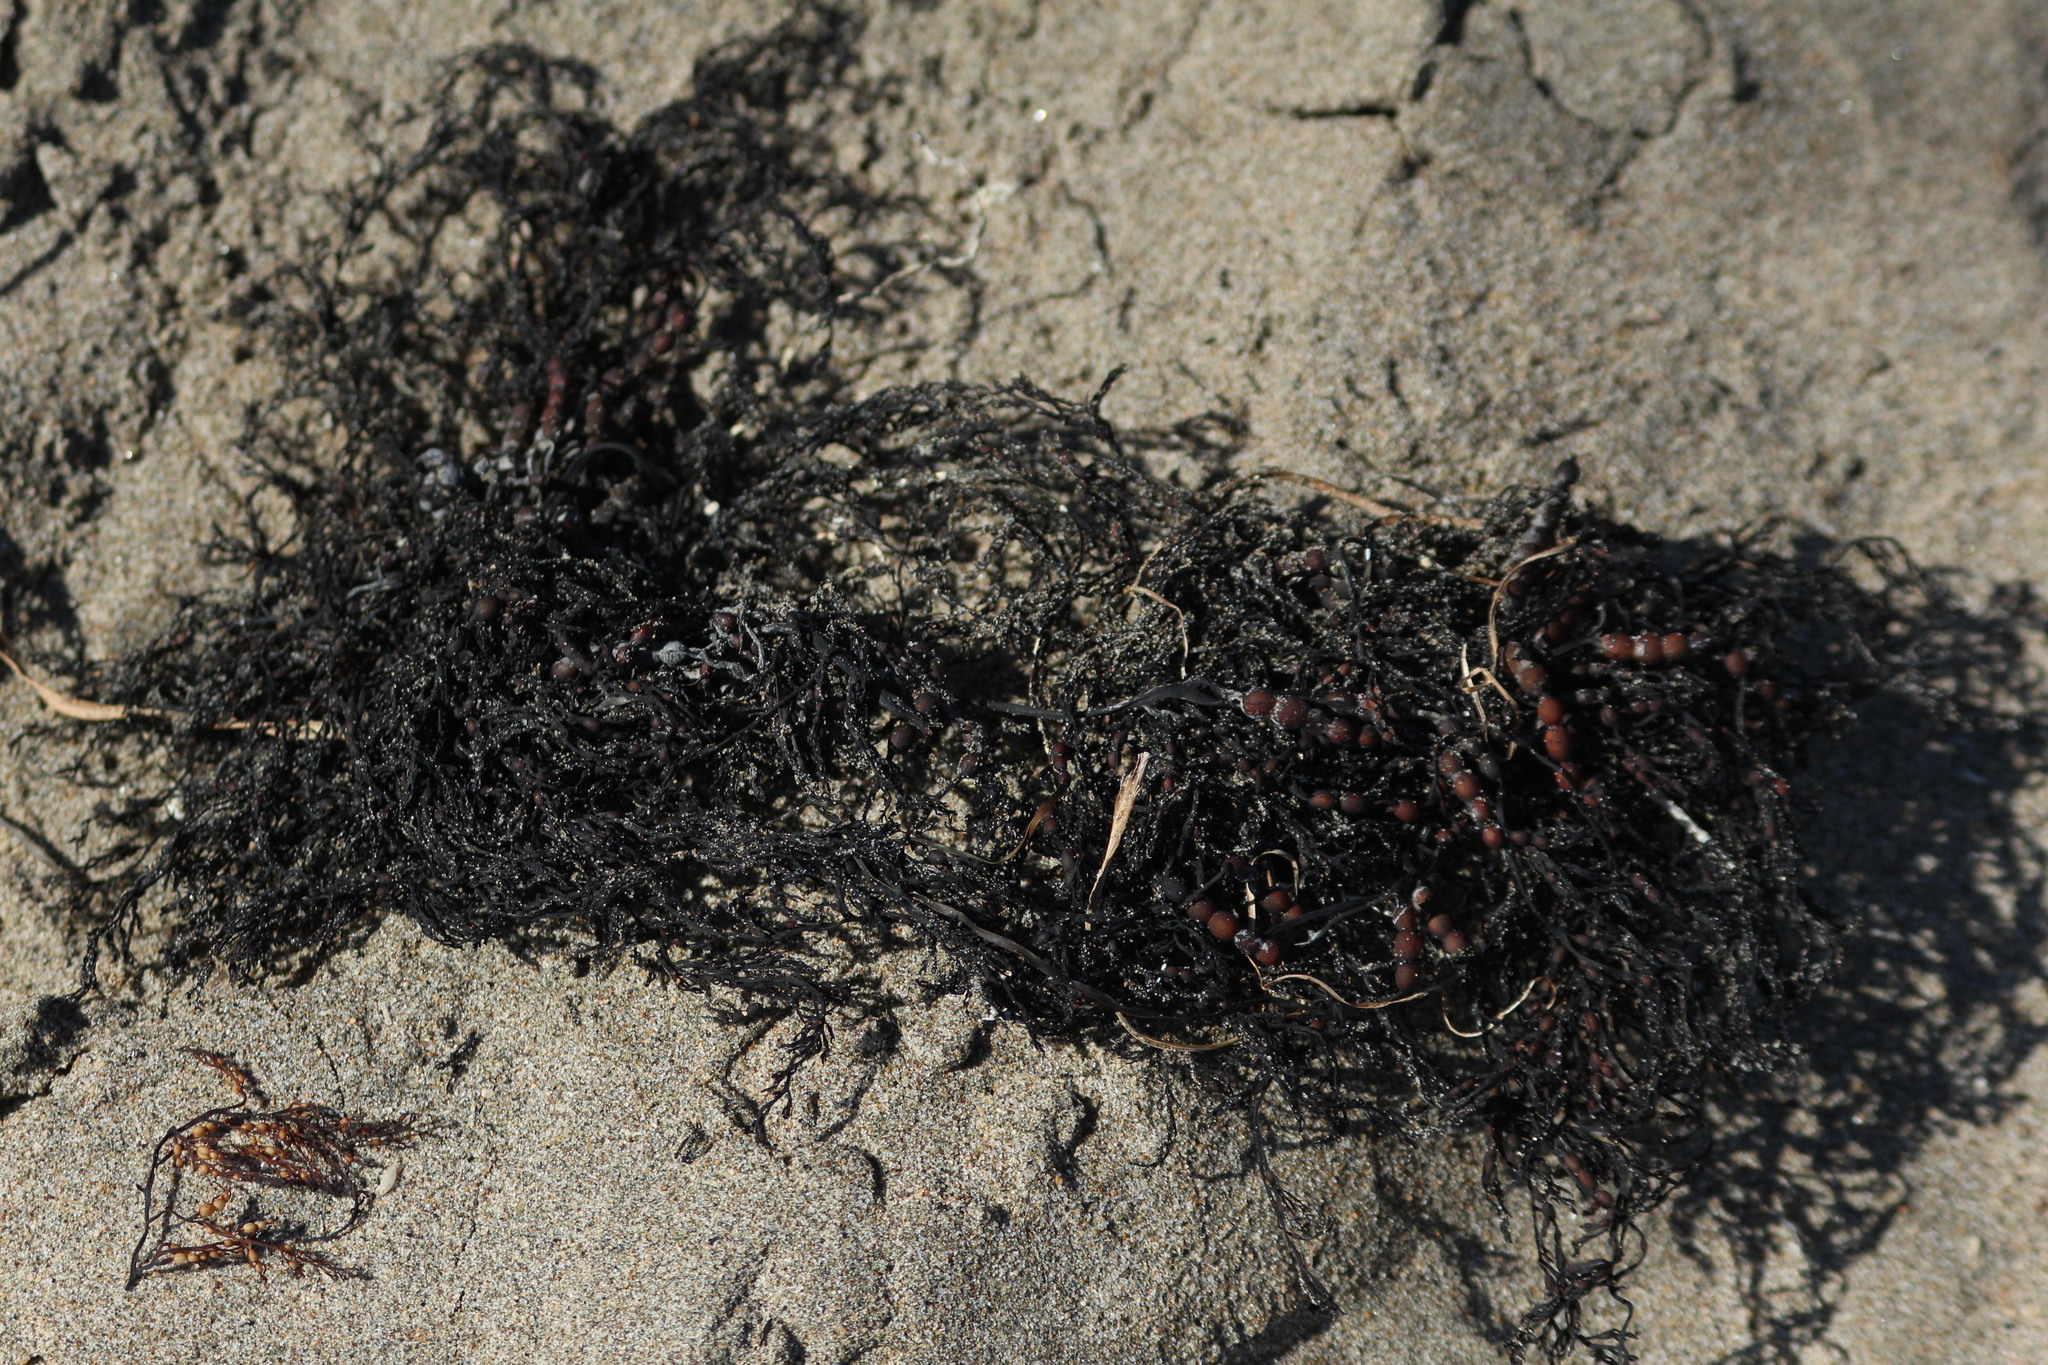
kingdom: Chromista
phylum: Ochrophyta
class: Phaeophyceae
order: Fucales
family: Sargassaceae
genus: Stephanocystis
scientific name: Stephanocystis
